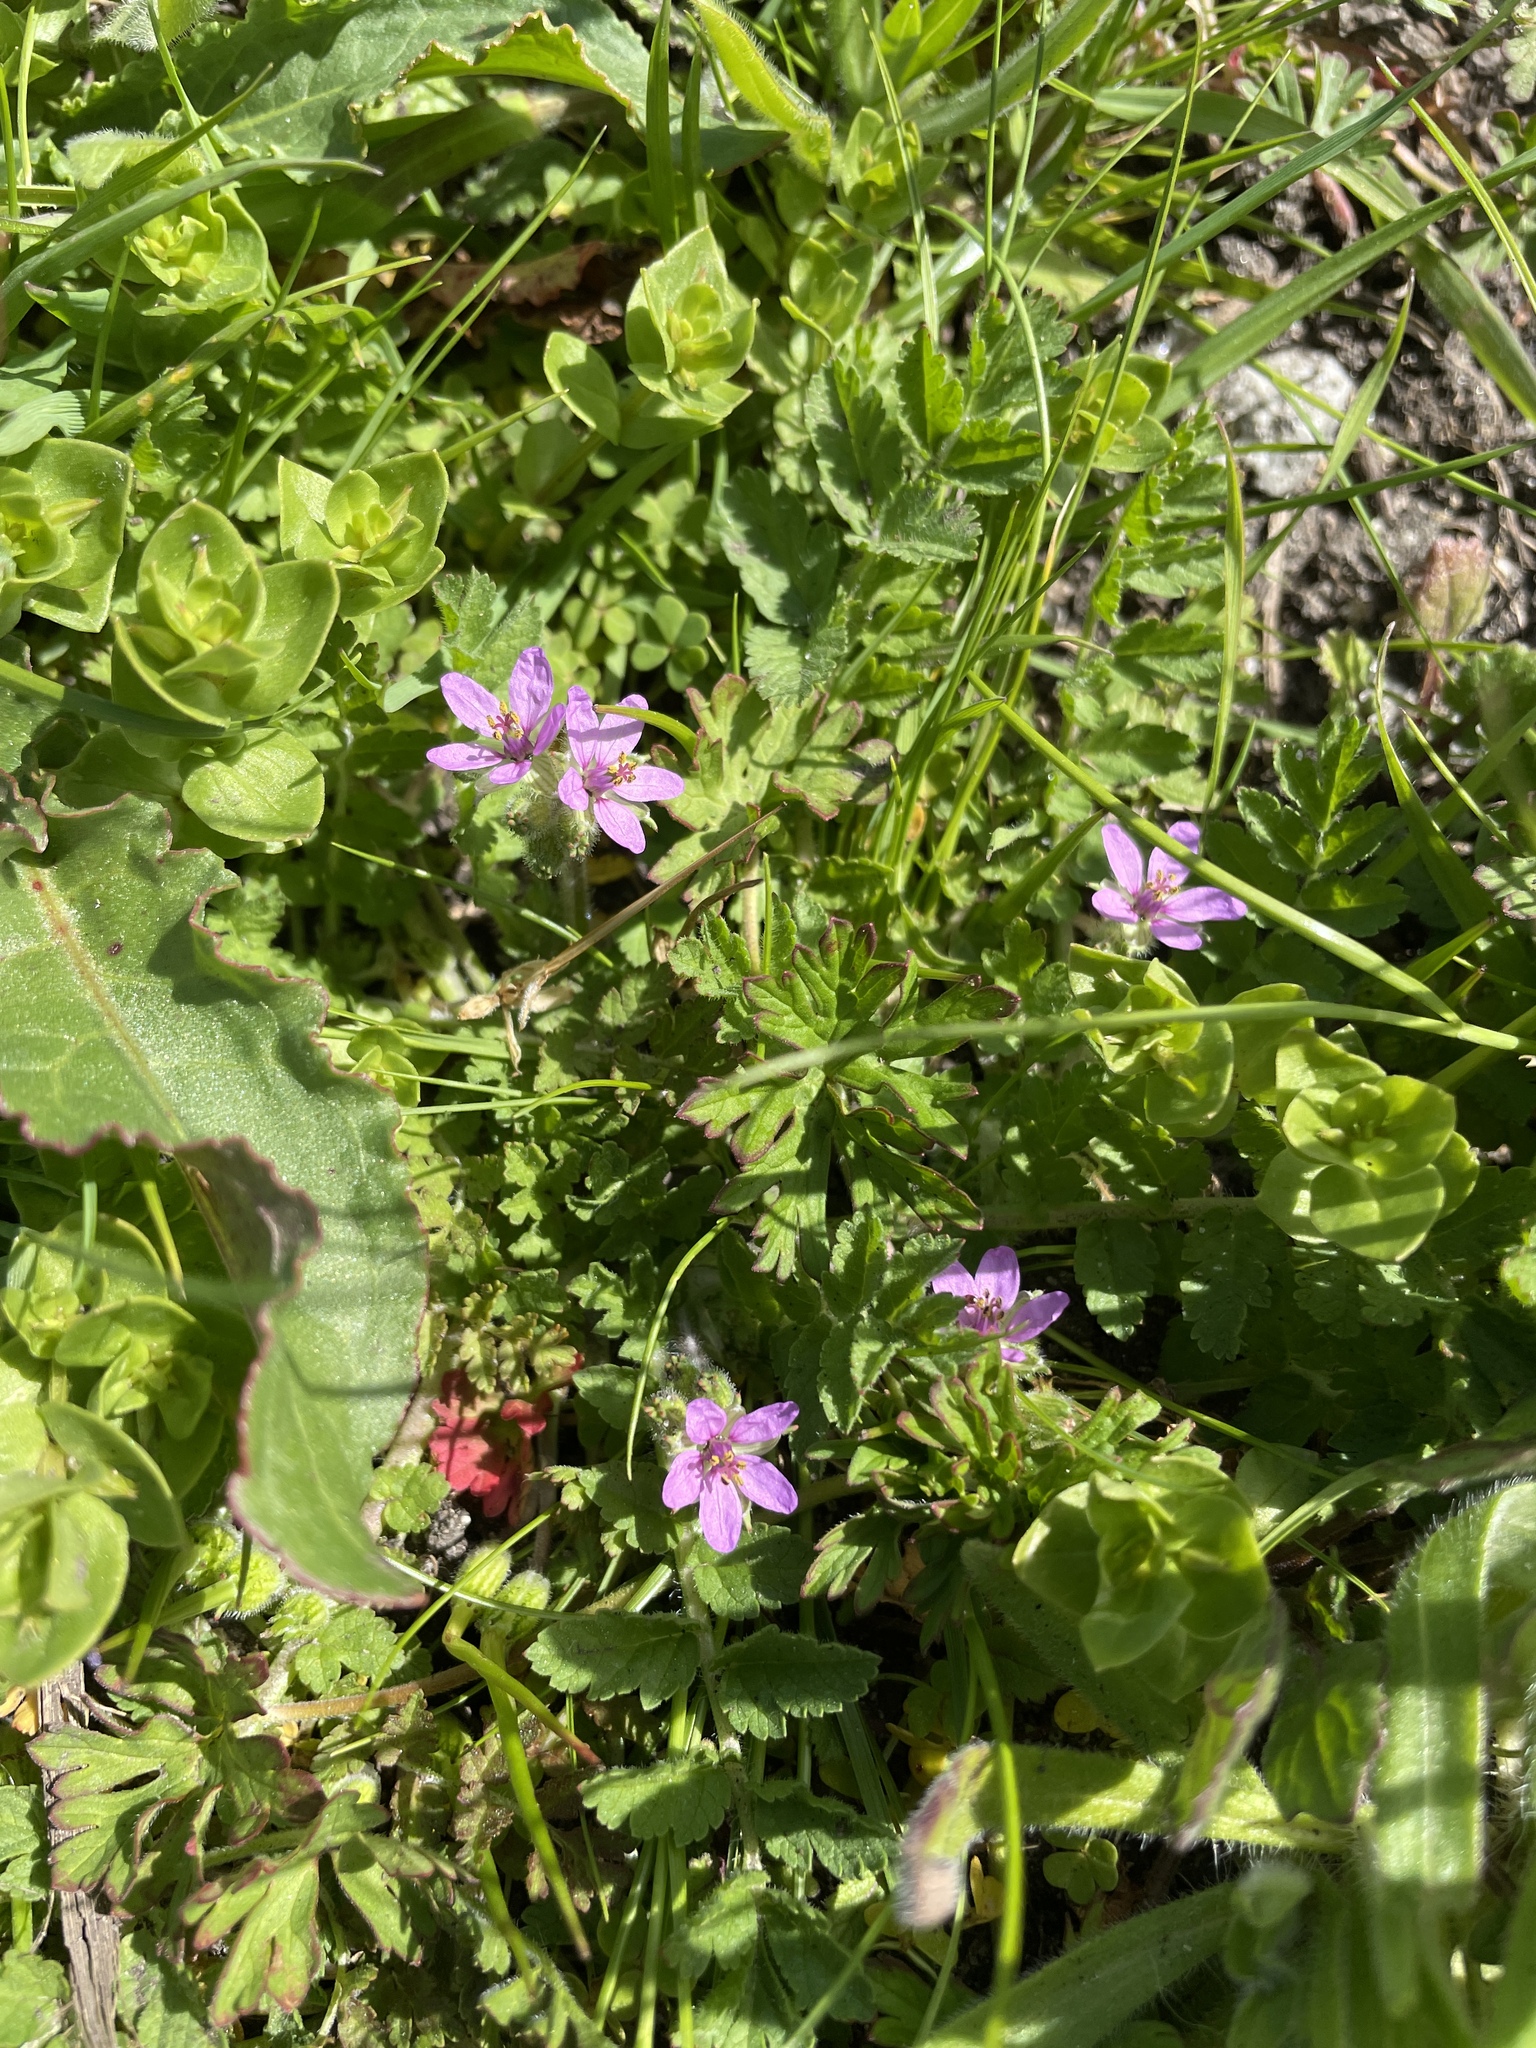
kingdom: Plantae
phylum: Tracheophyta
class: Magnoliopsida
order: Geraniales
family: Geraniaceae
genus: Erodium
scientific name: Erodium moschatum
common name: Musk stork's-bill
